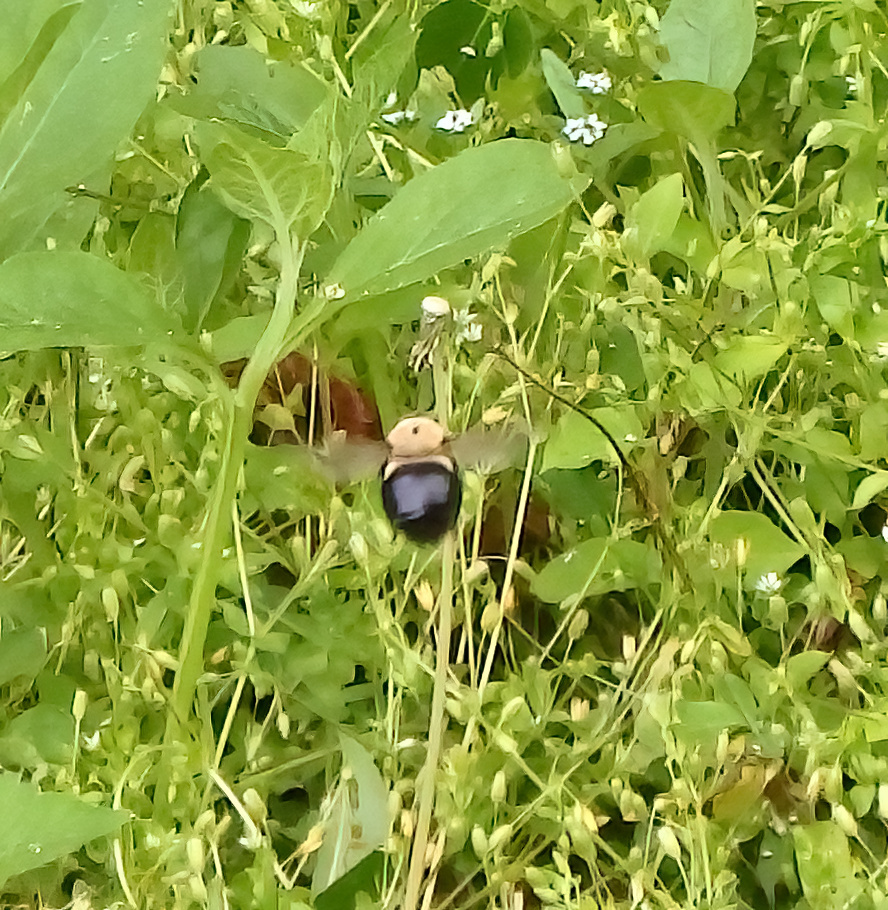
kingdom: Animalia
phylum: Arthropoda
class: Insecta
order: Hymenoptera
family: Apidae
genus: Xylocopa
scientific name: Xylocopa virginica
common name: Carpenter bee
